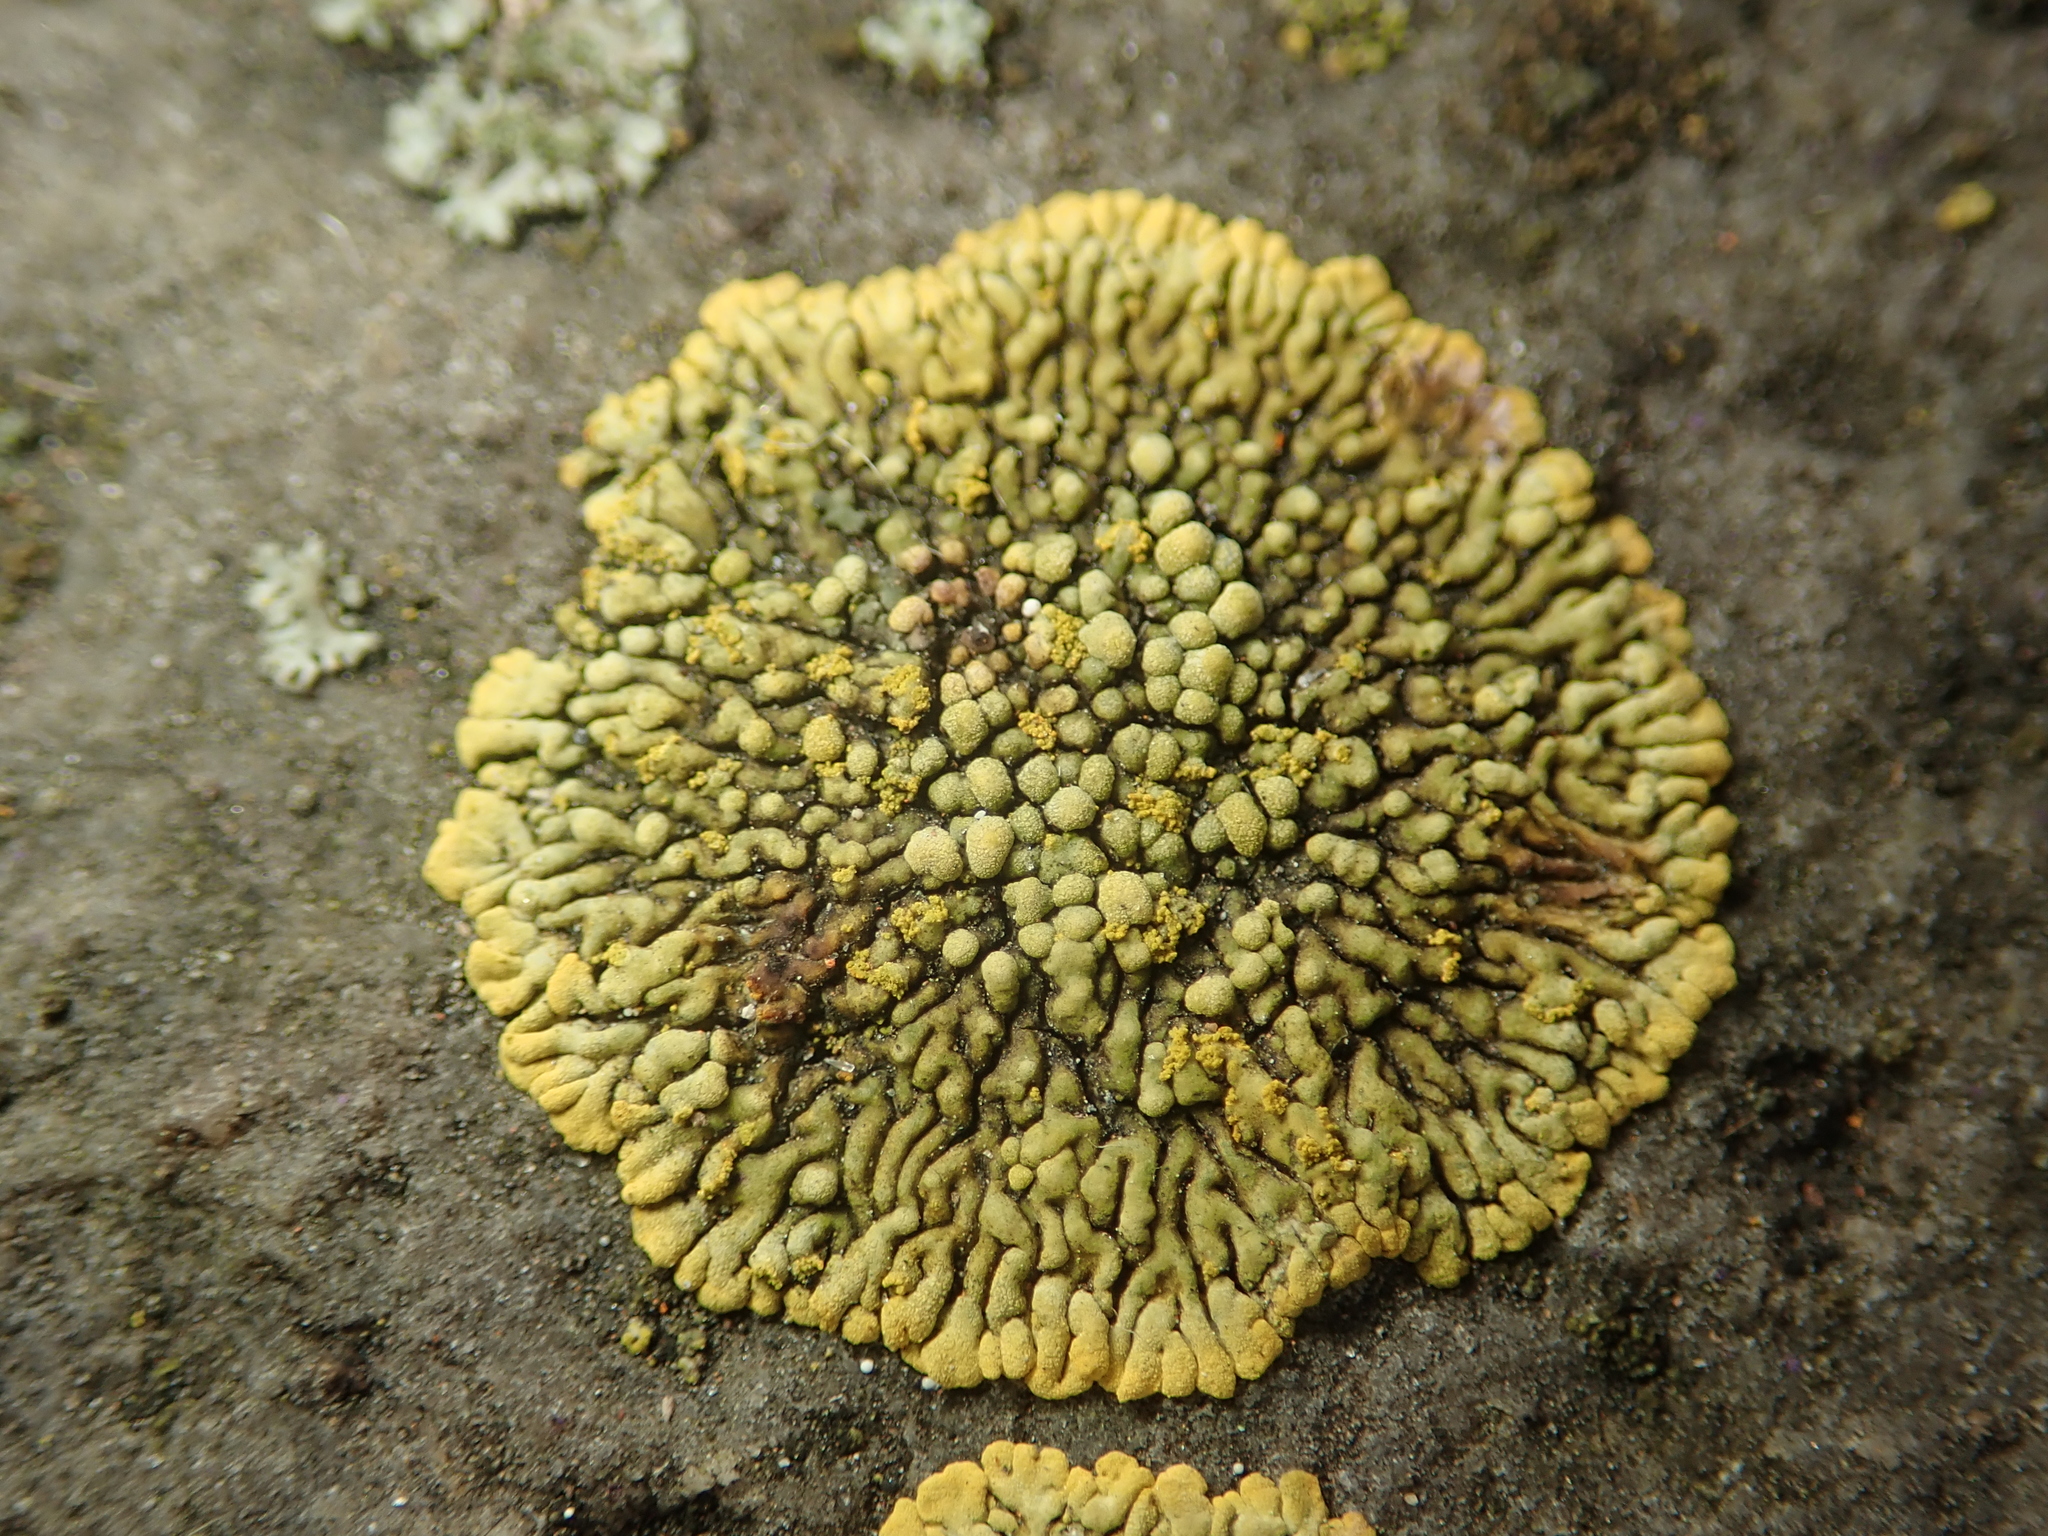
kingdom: Fungi
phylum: Ascomycota
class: Lecanoromycetes
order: Teloschistales
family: Teloschistaceae
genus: Calogaya
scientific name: Calogaya decipiens
